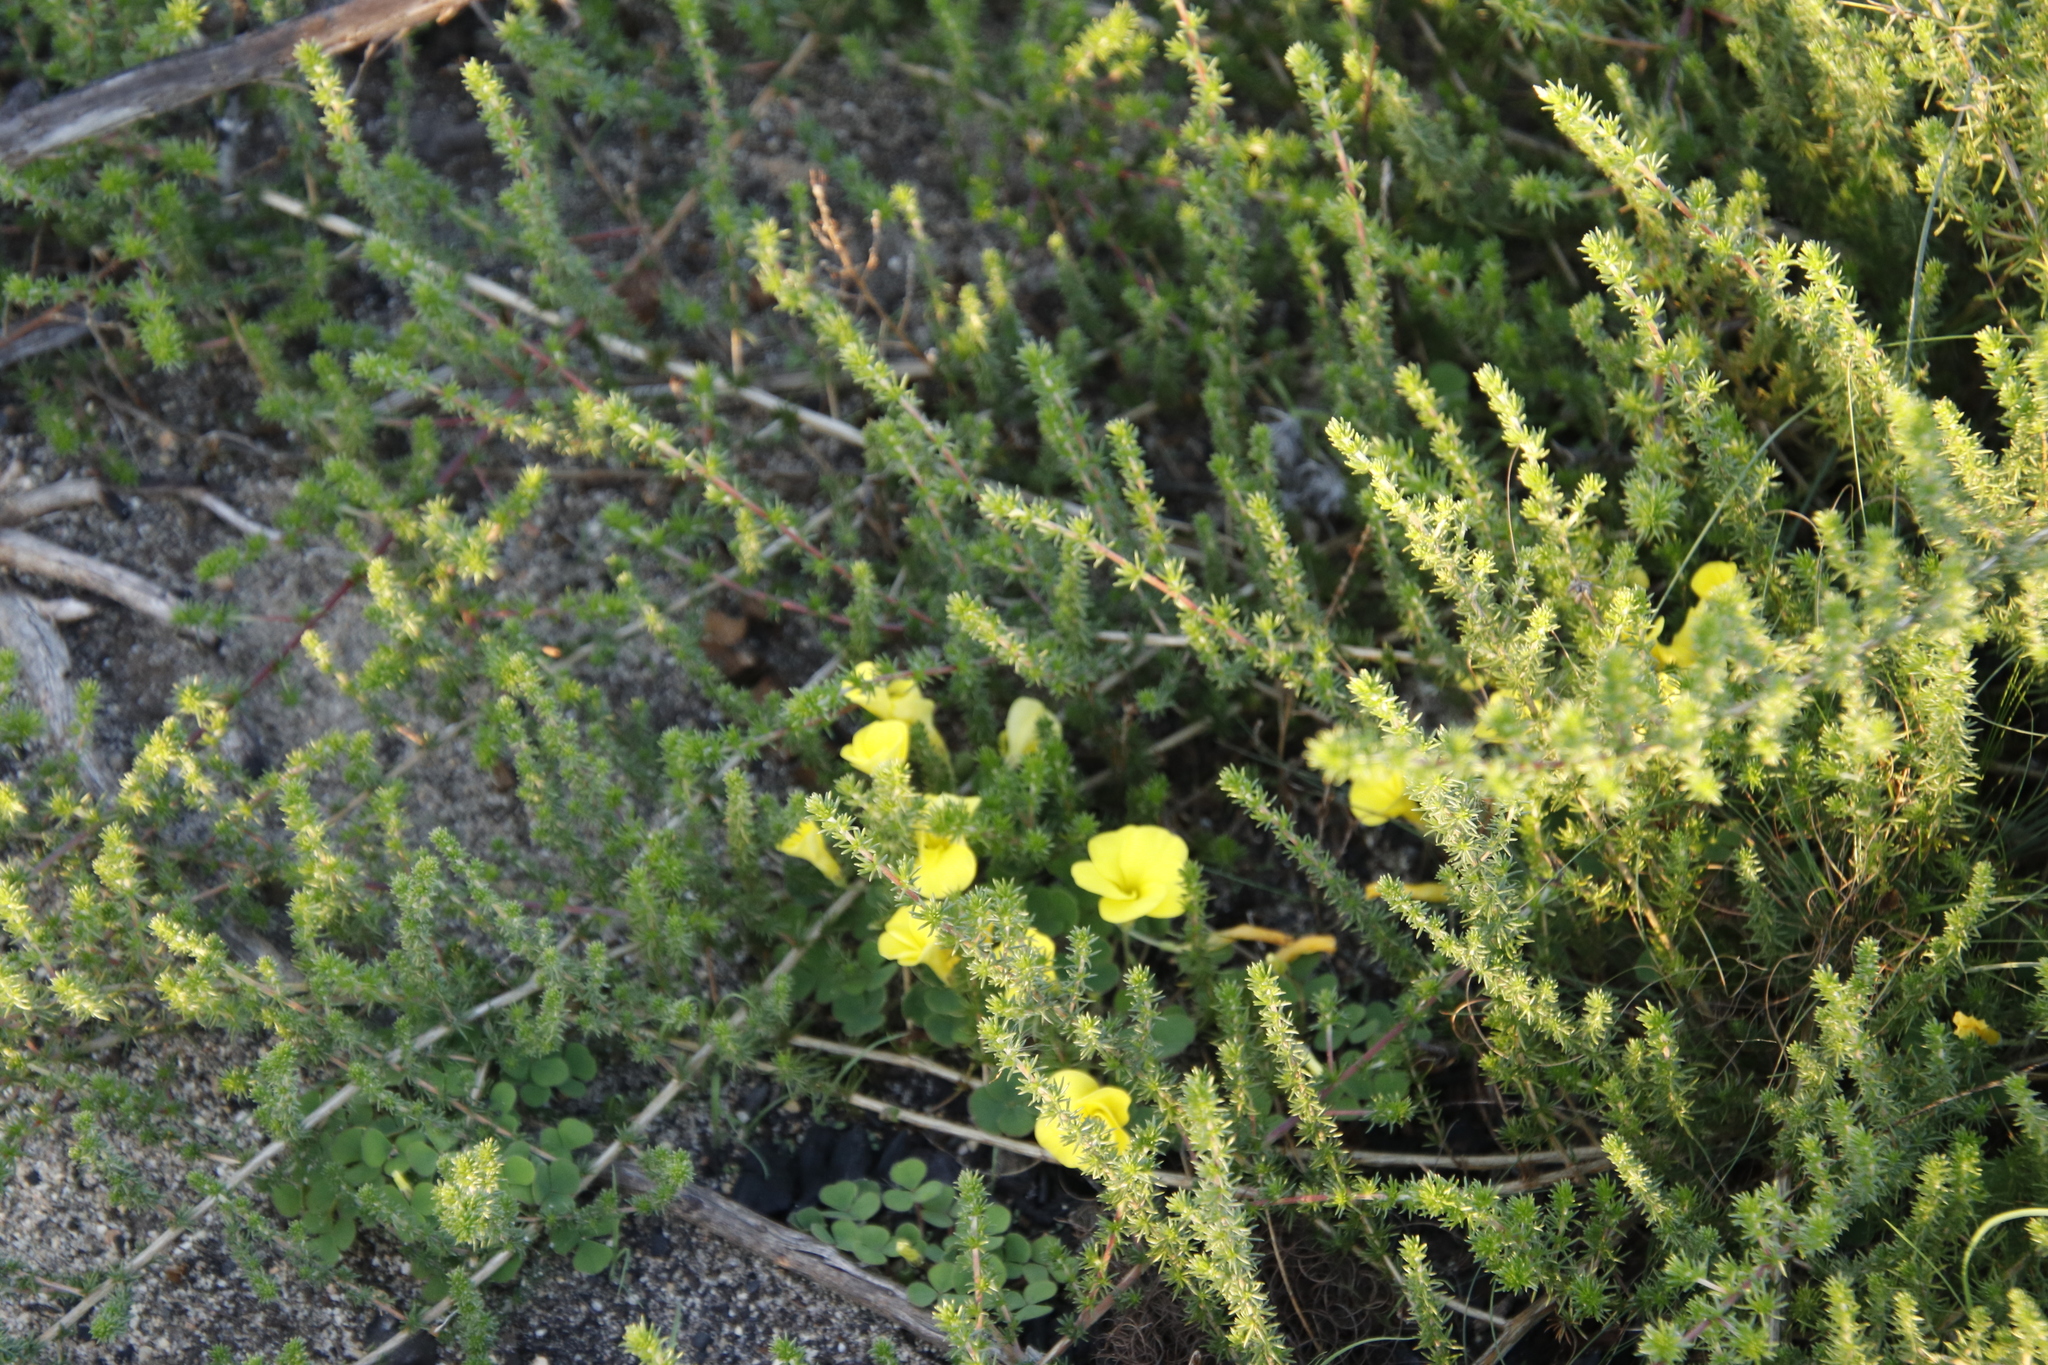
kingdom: Plantae
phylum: Tracheophyta
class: Magnoliopsida
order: Oxalidales
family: Oxalidaceae
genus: Oxalis
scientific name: Oxalis luteola
